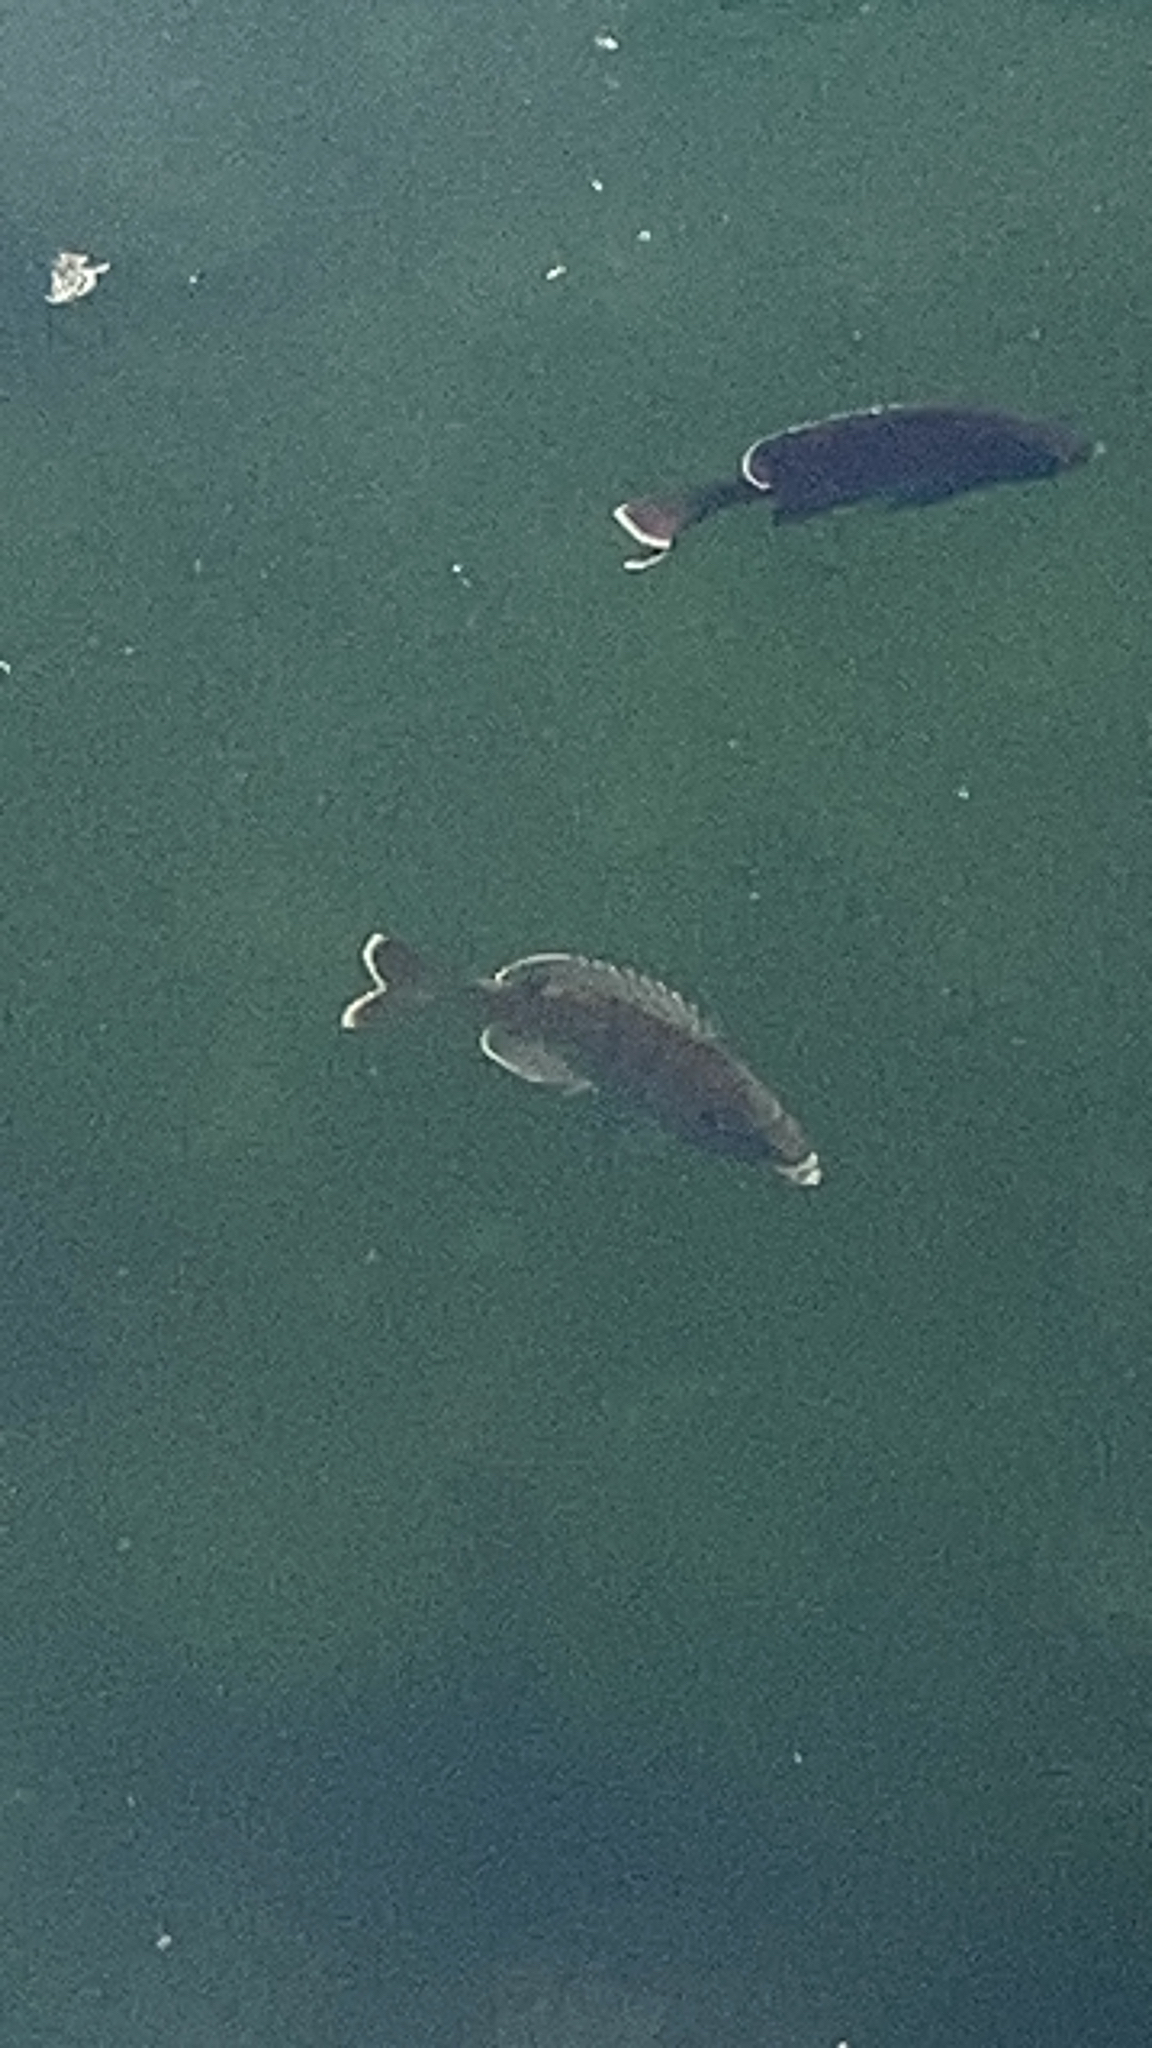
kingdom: Animalia
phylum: Chordata
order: Perciformes
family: Centrarchidae
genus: Lepomis
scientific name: Lepomis macrochirus
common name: Bluegill
